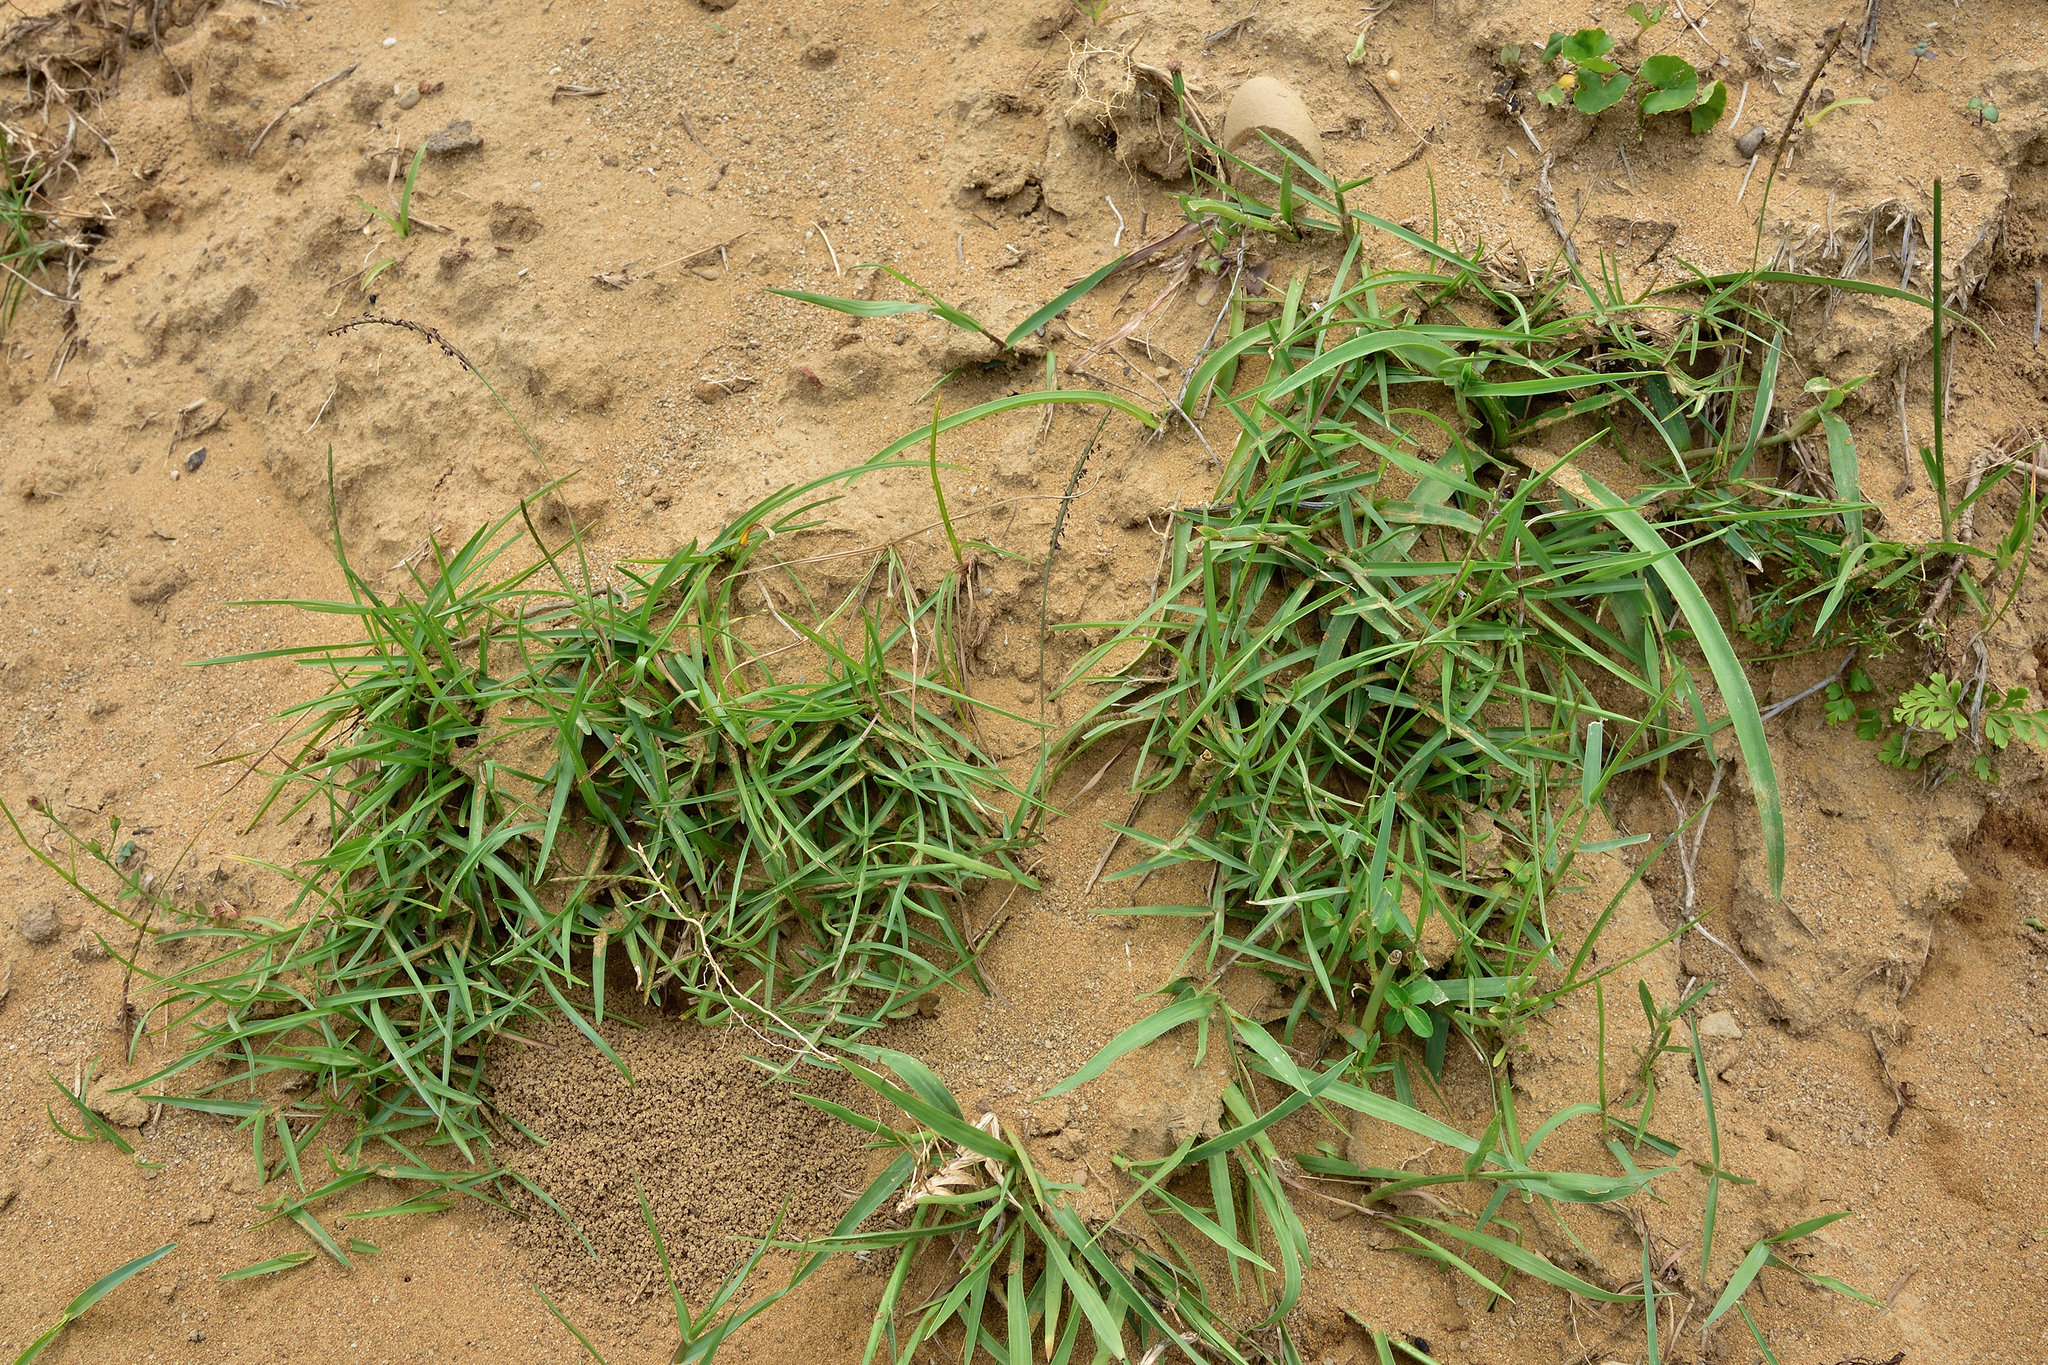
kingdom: Plantae
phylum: Tracheophyta
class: Liliopsida
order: Poales
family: Poaceae
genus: Eremochloa
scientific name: Eremochloa ophiuroides
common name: Centipede grass
